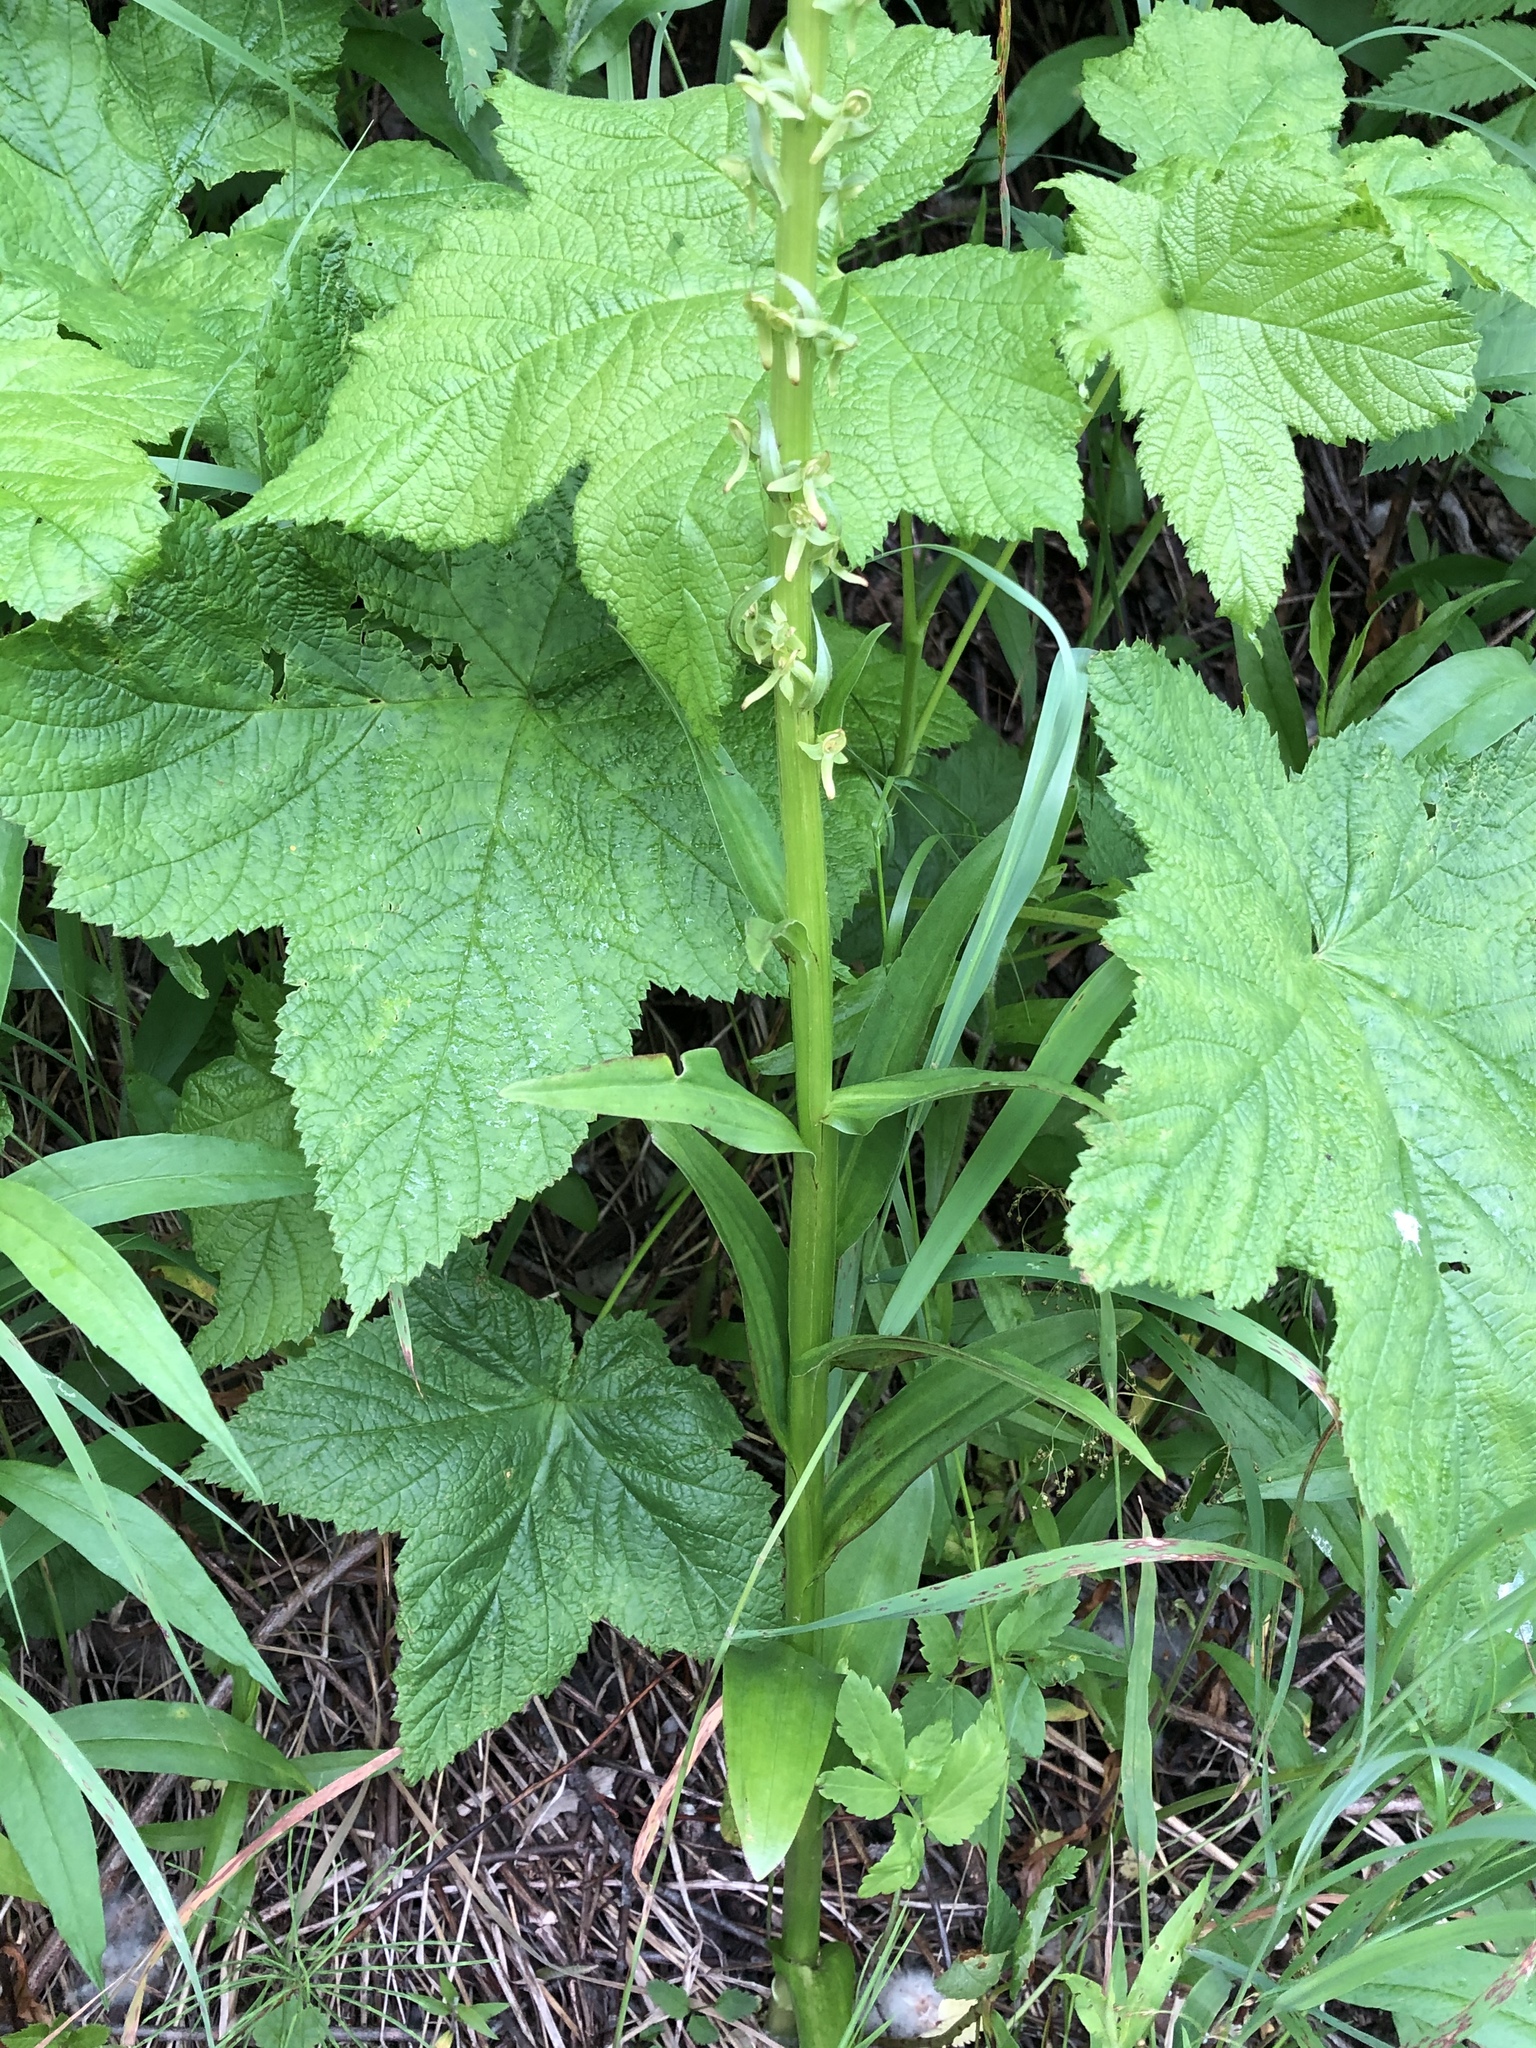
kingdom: Plantae
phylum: Tracheophyta
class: Liliopsida
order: Asparagales
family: Orchidaceae
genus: Platanthera
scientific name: Platanthera stricta
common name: Slender bog orchid
